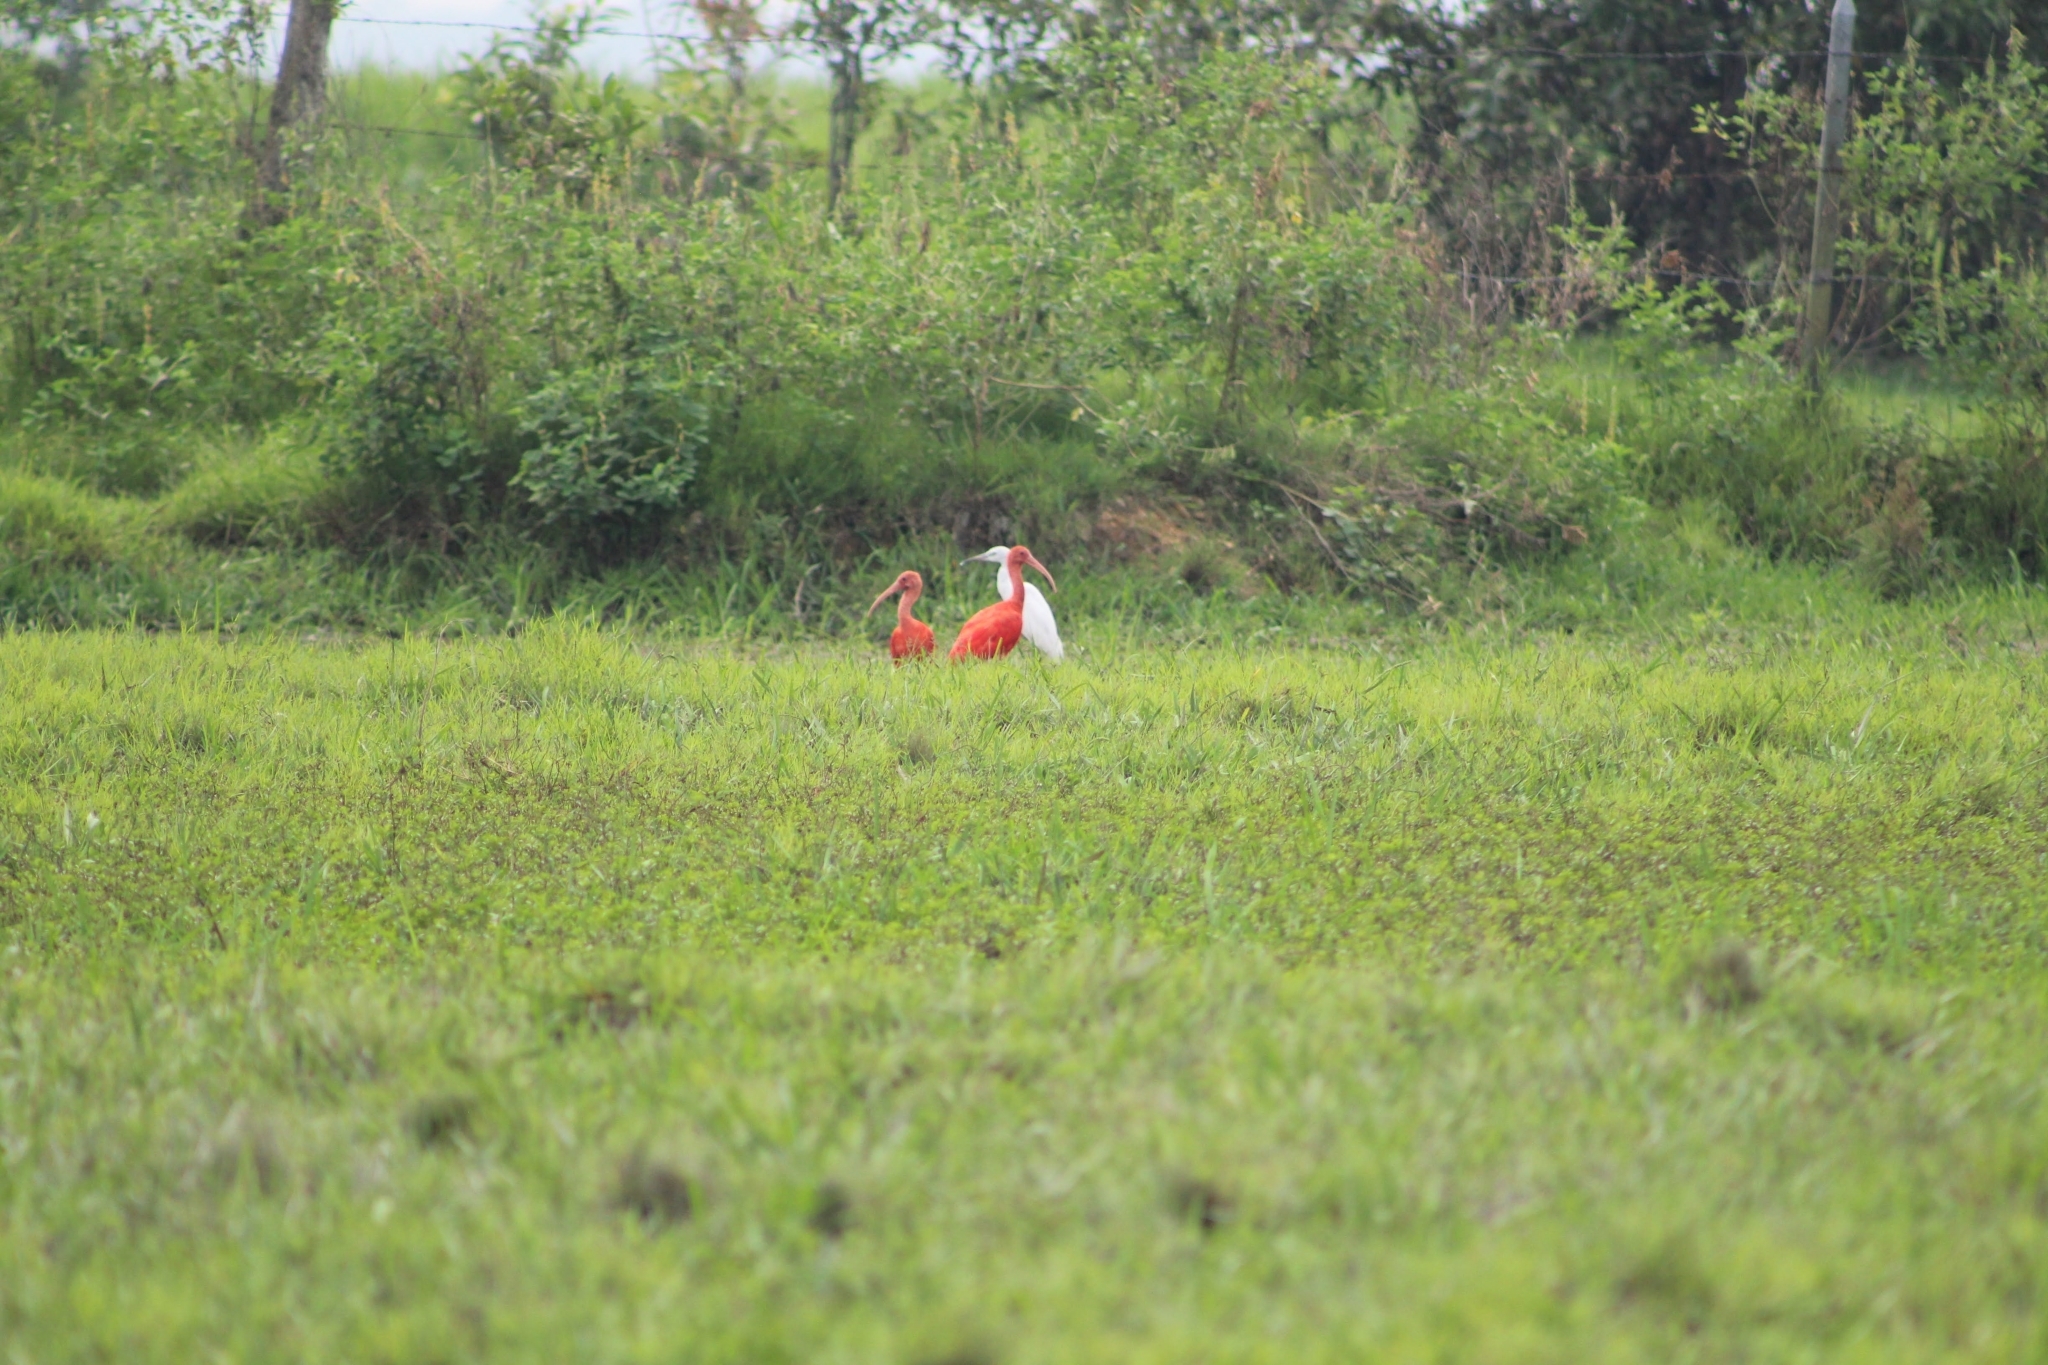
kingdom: Animalia
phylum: Chordata
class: Aves
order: Pelecaniformes
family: Threskiornithidae
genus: Eudocimus
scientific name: Eudocimus ruber
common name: Scarlet ibis
